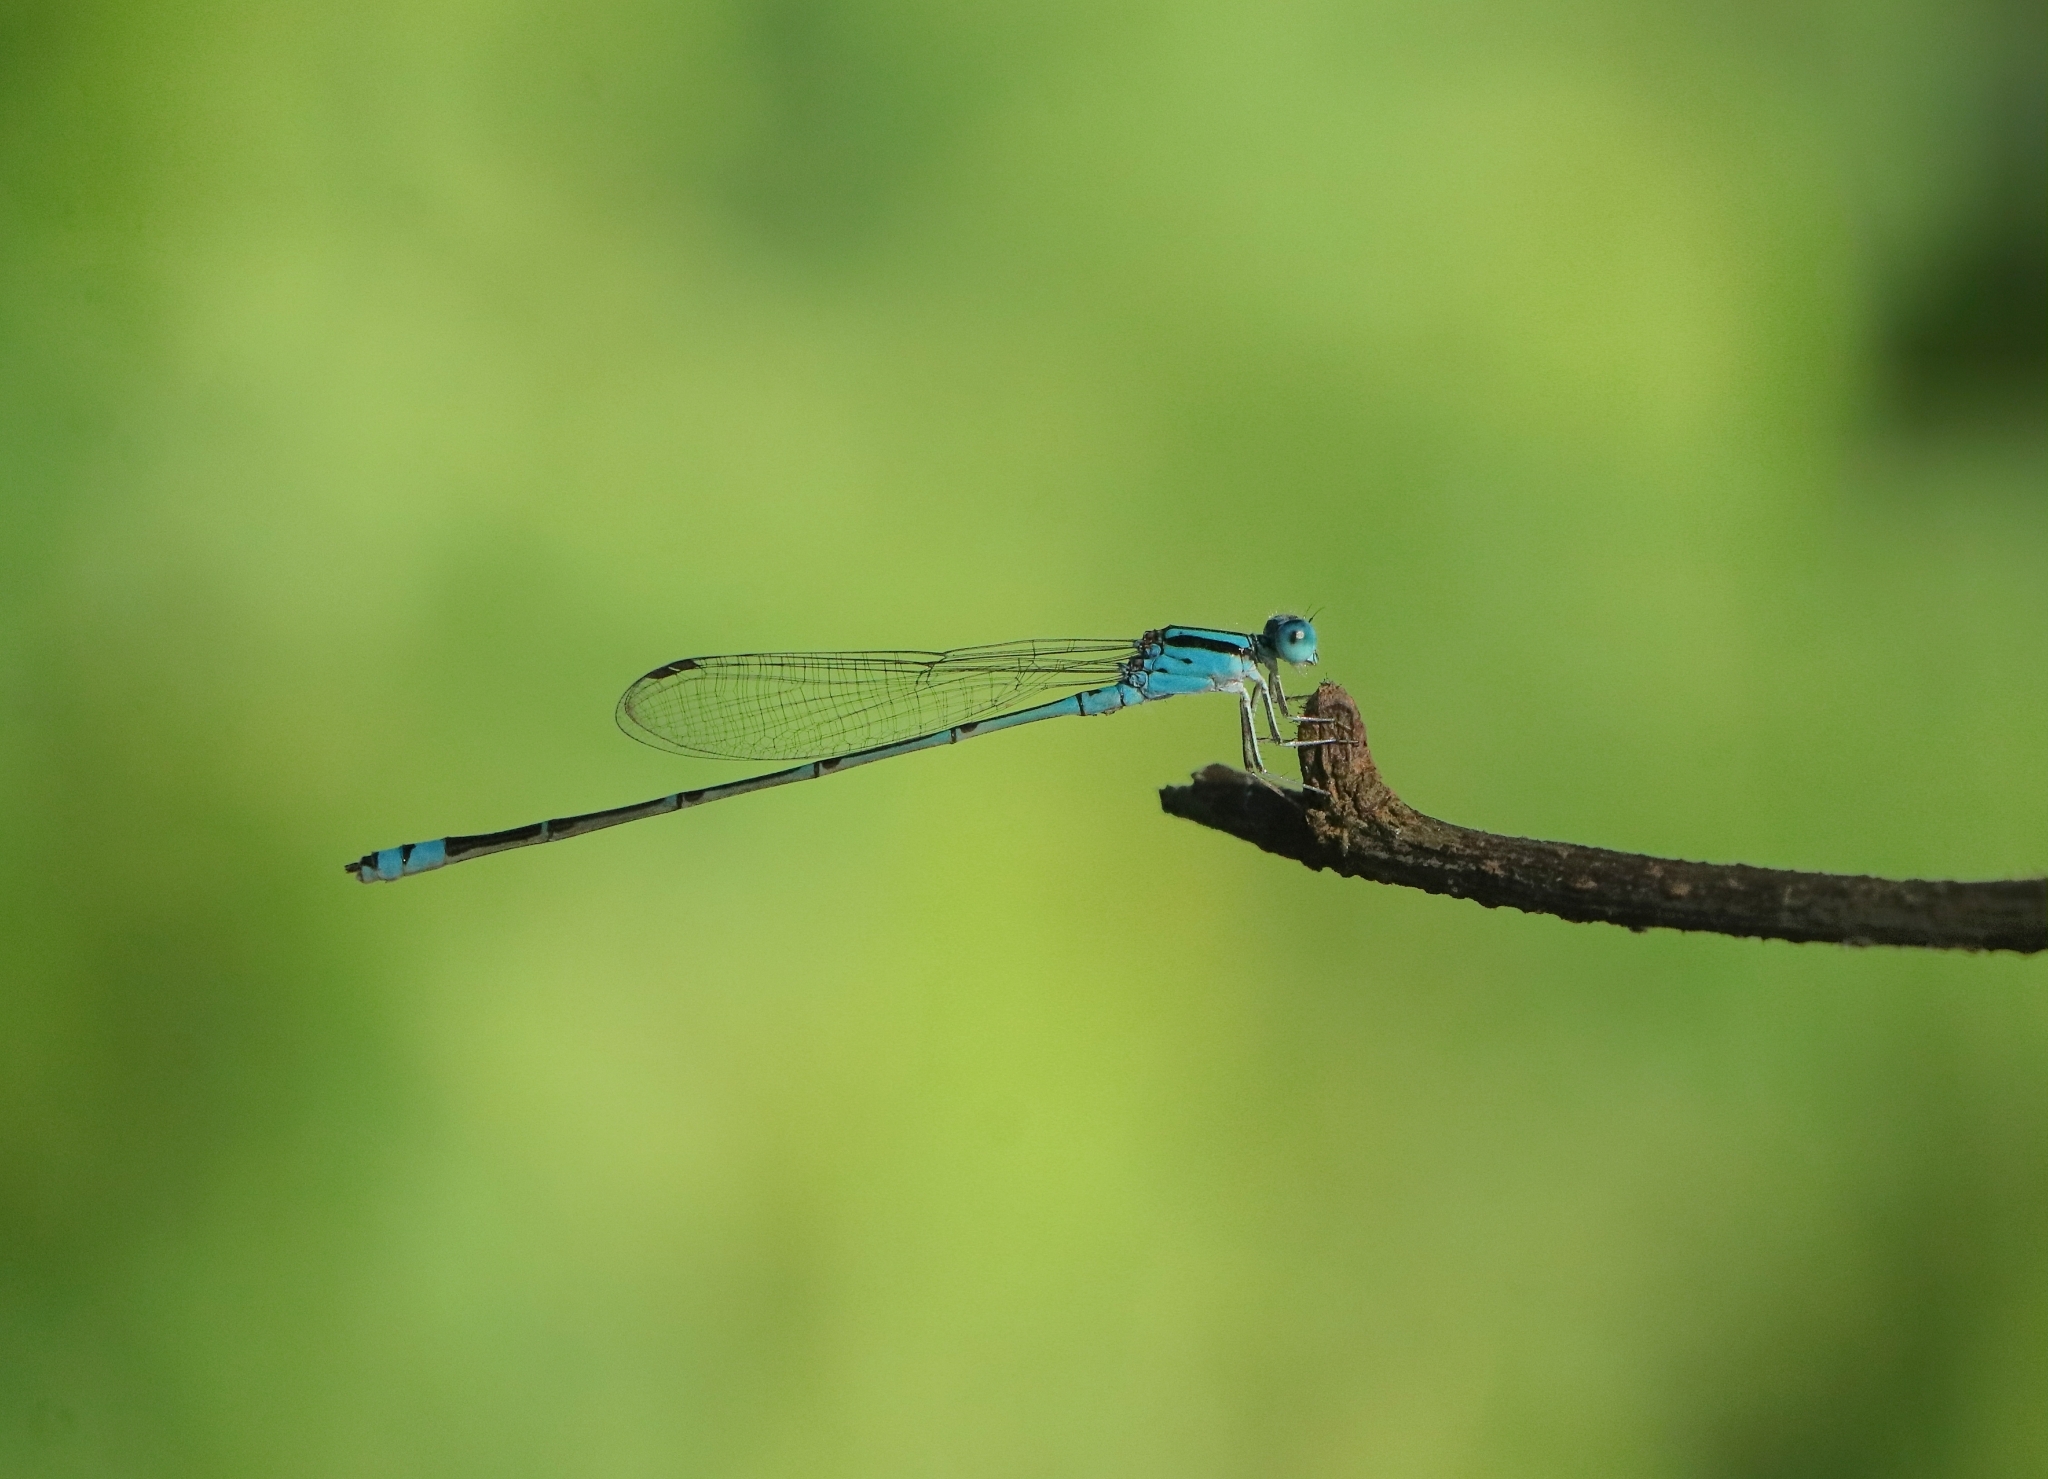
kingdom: Animalia
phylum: Arthropoda
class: Insecta
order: Odonata
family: Coenagrionidae
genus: Pseudagrion
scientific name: Pseudagrion microcephalum
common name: Blue riverdamsel
